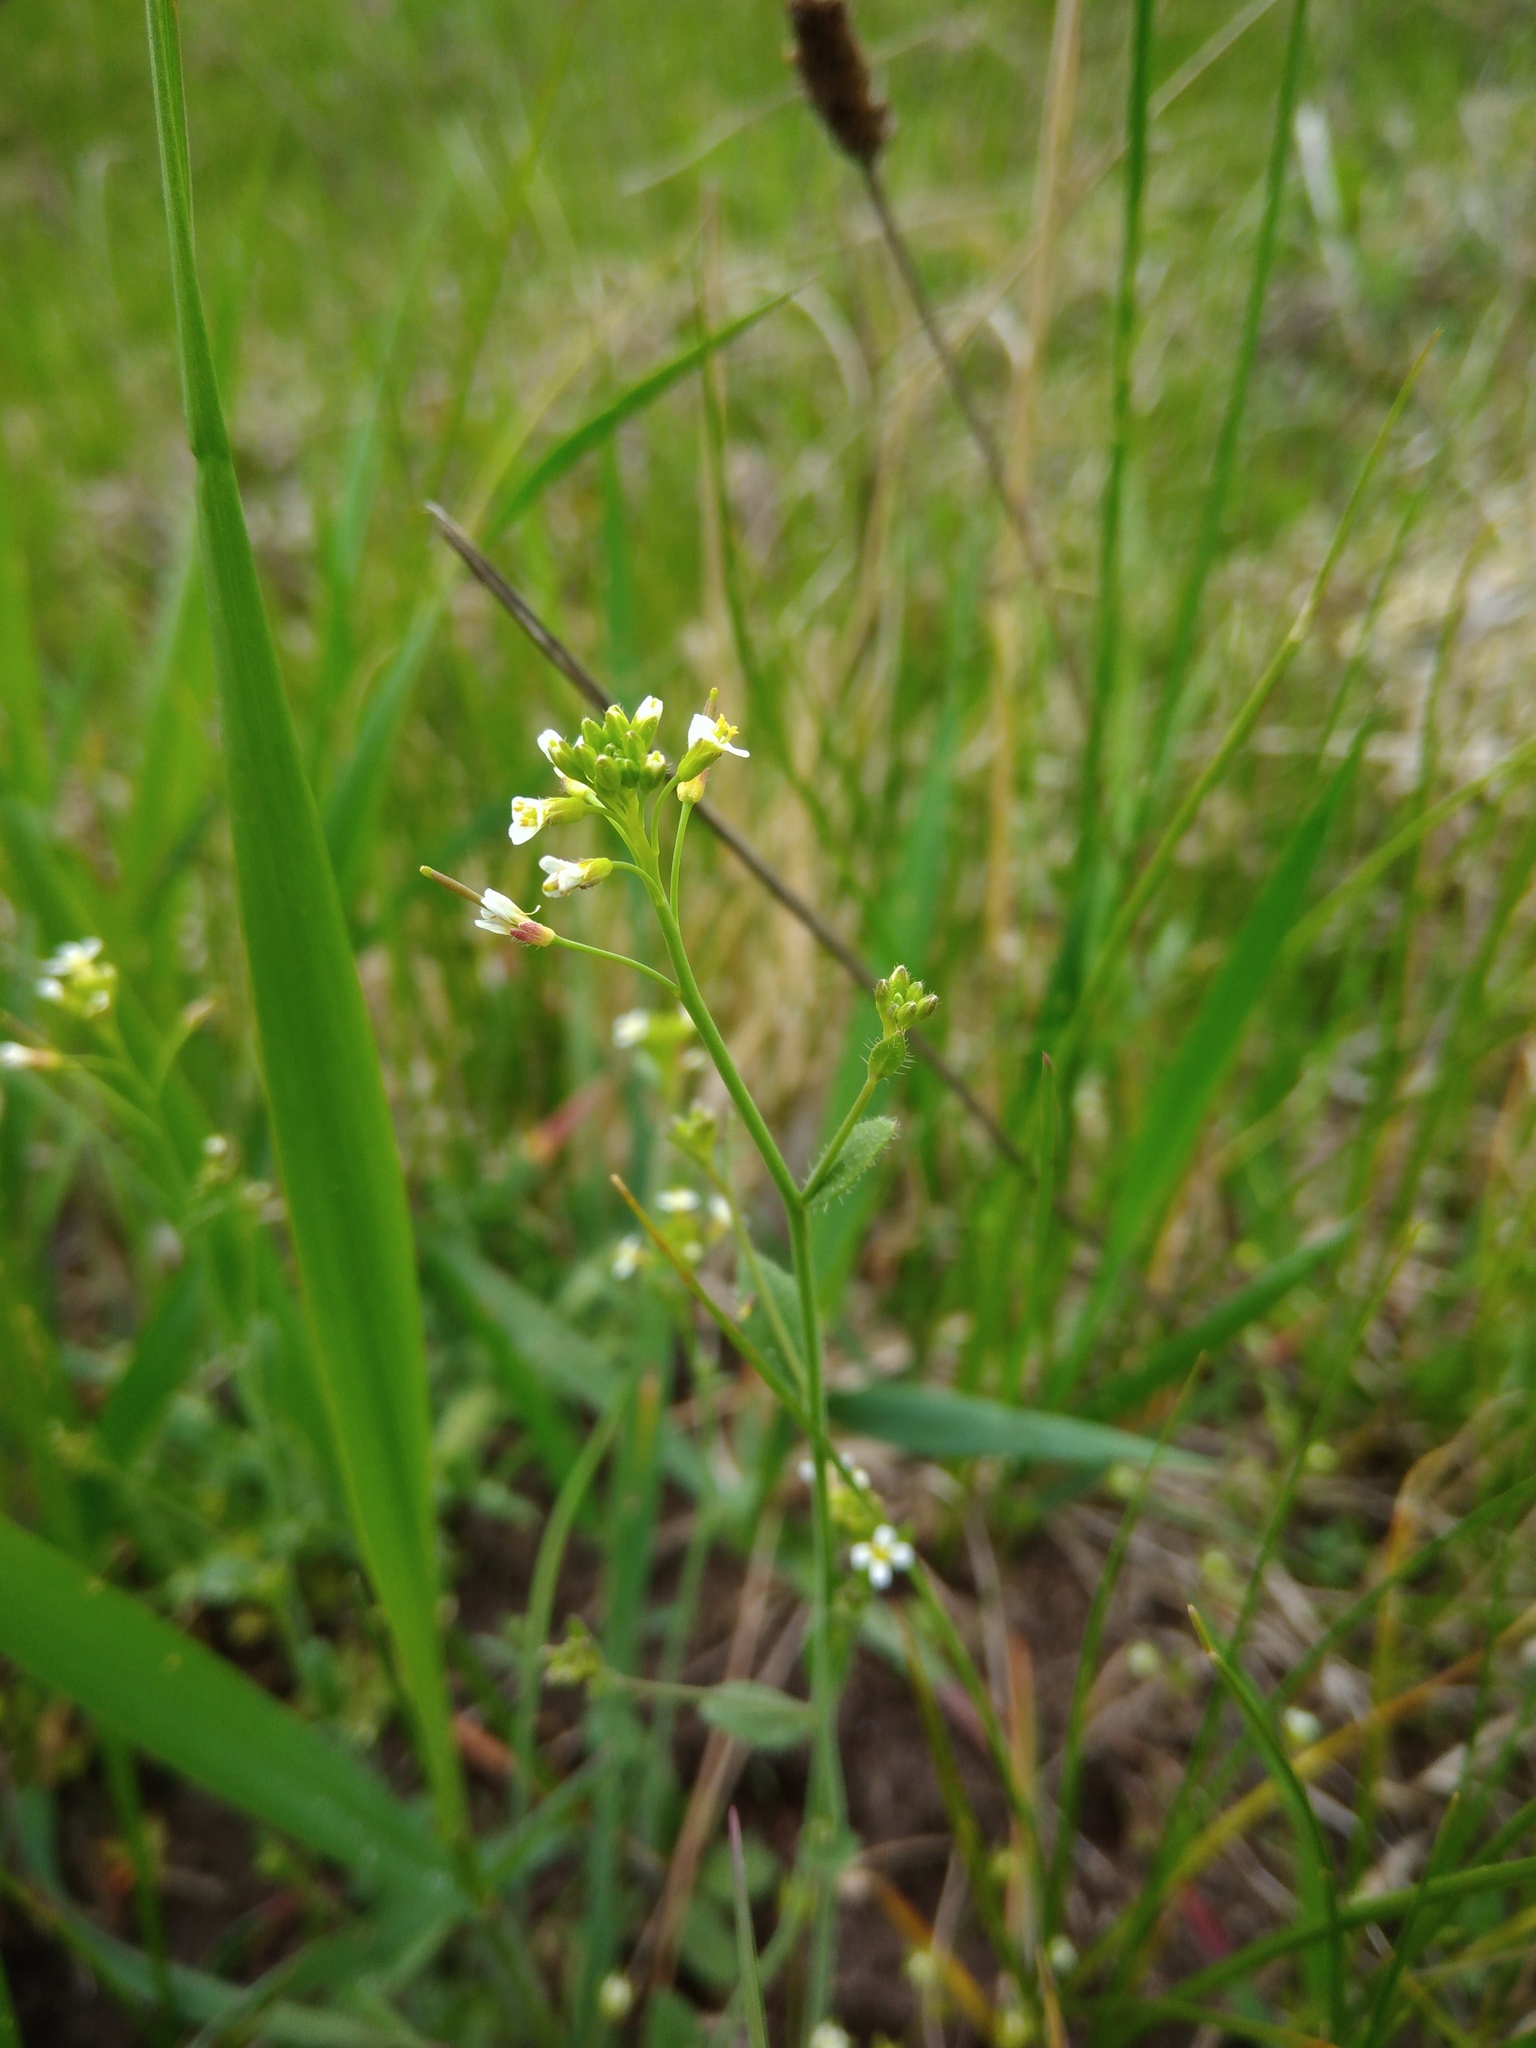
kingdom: Plantae
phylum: Tracheophyta
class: Magnoliopsida
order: Brassicales
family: Brassicaceae
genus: Arabidopsis
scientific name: Arabidopsis thaliana
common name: Thale cress
